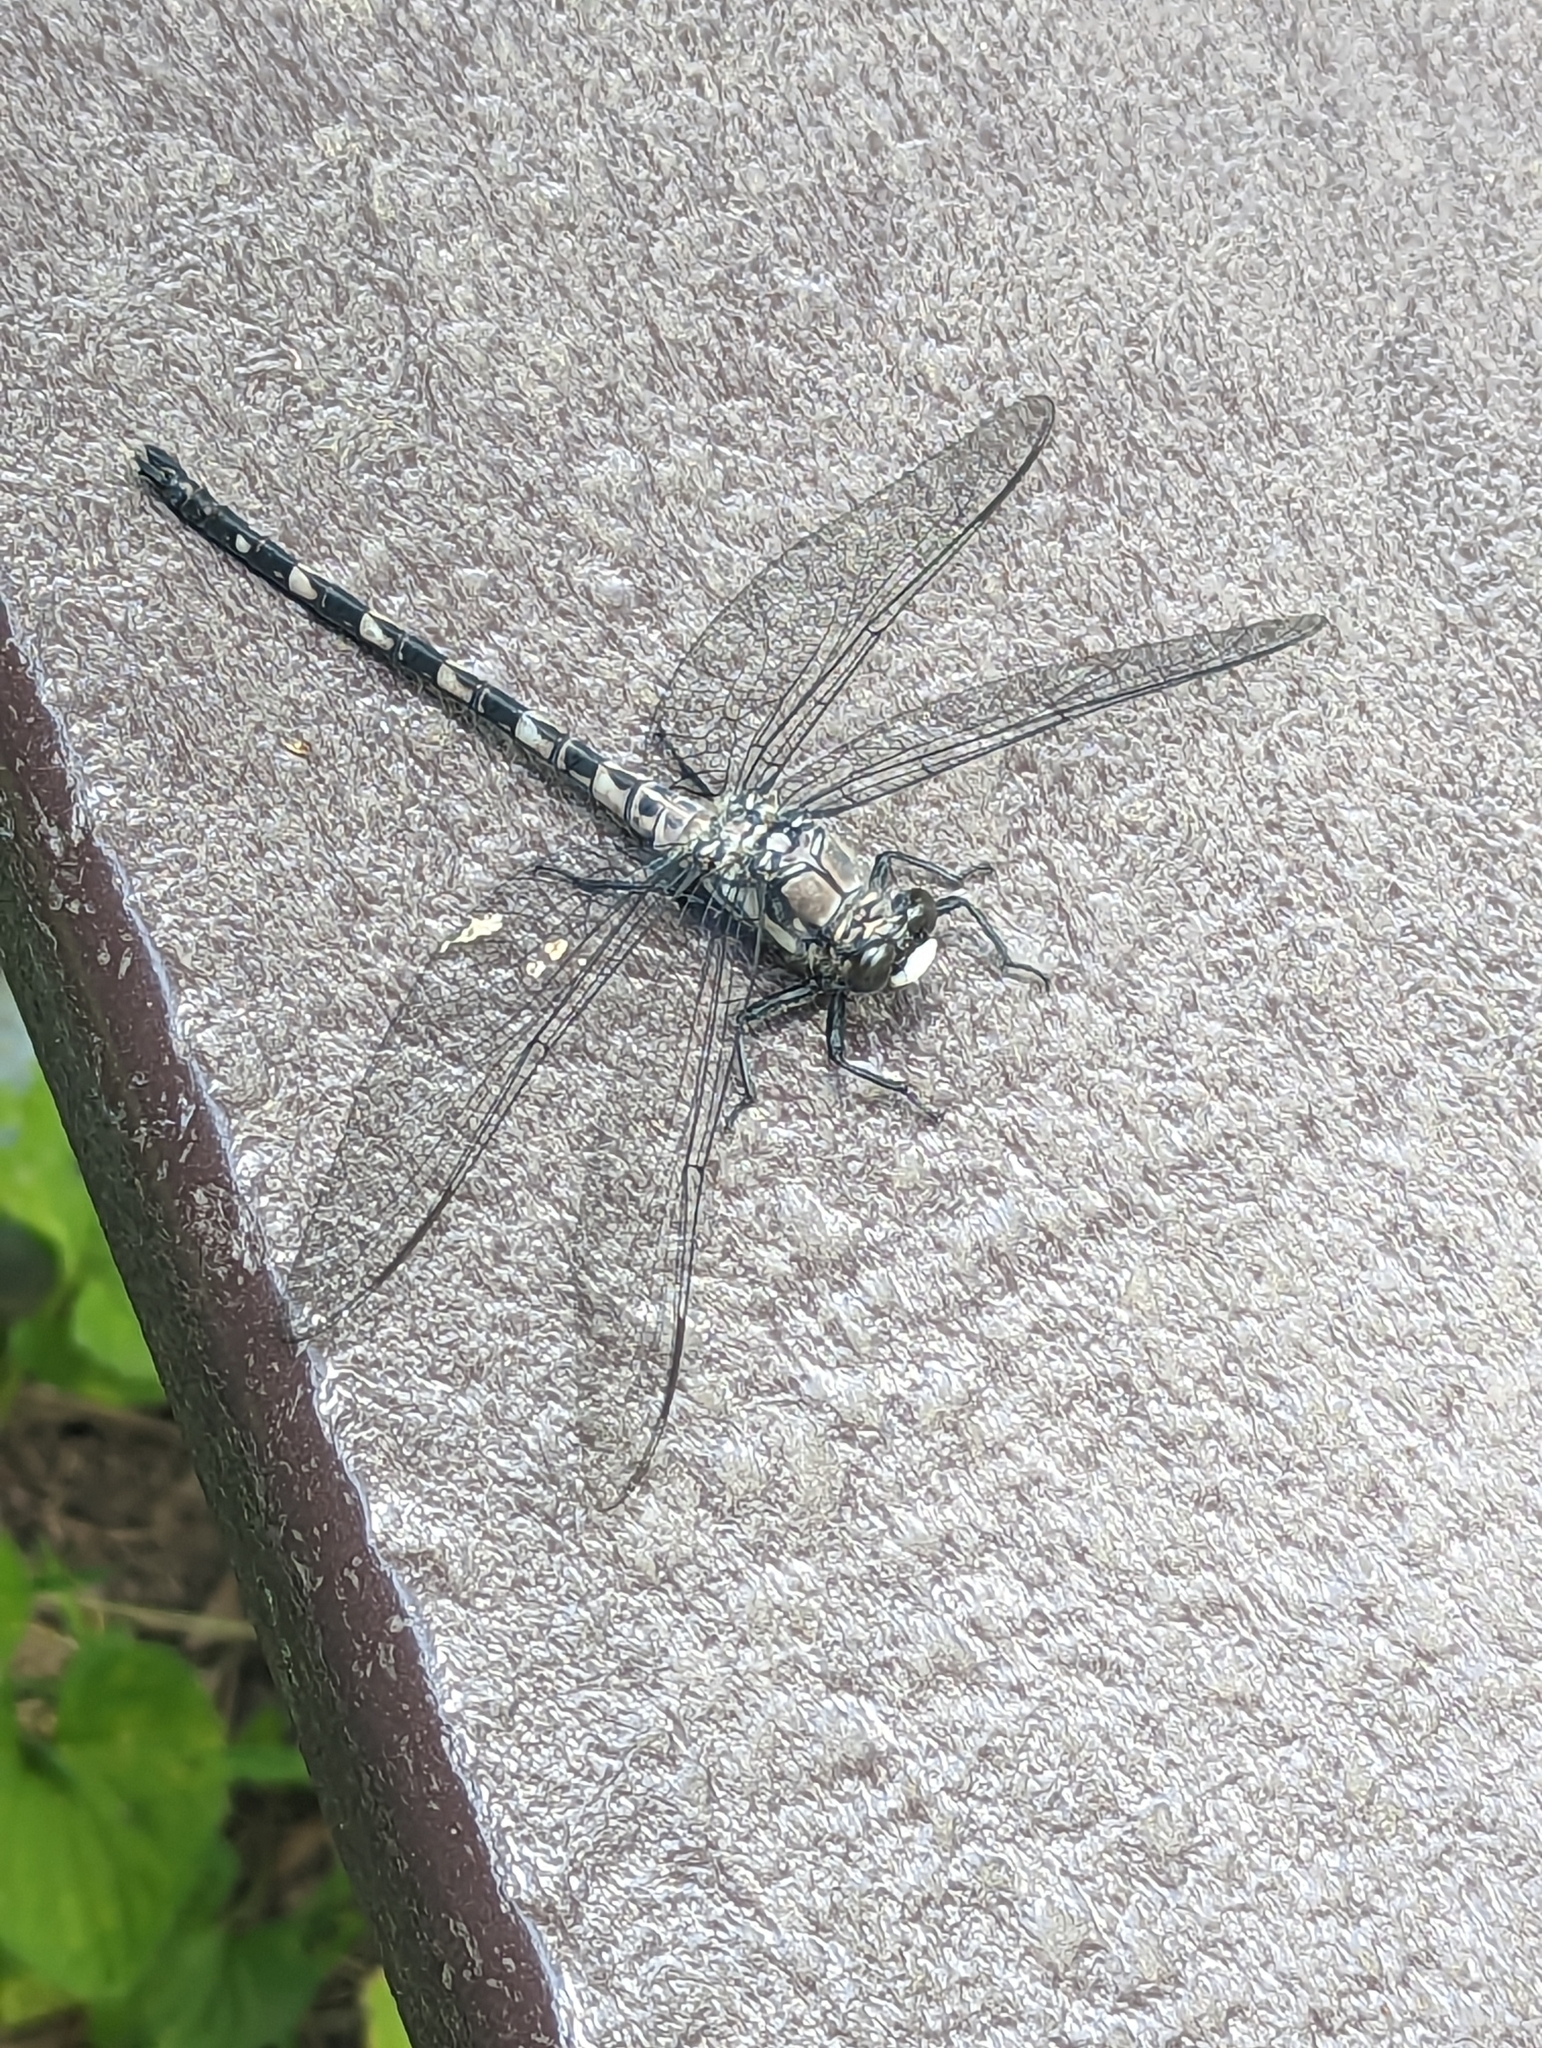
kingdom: Animalia
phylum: Arthropoda
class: Insecta
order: Odonata
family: Petaluridae
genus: Tachopteryx
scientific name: Tachopteryx thoreyi
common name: Gray petaltail
